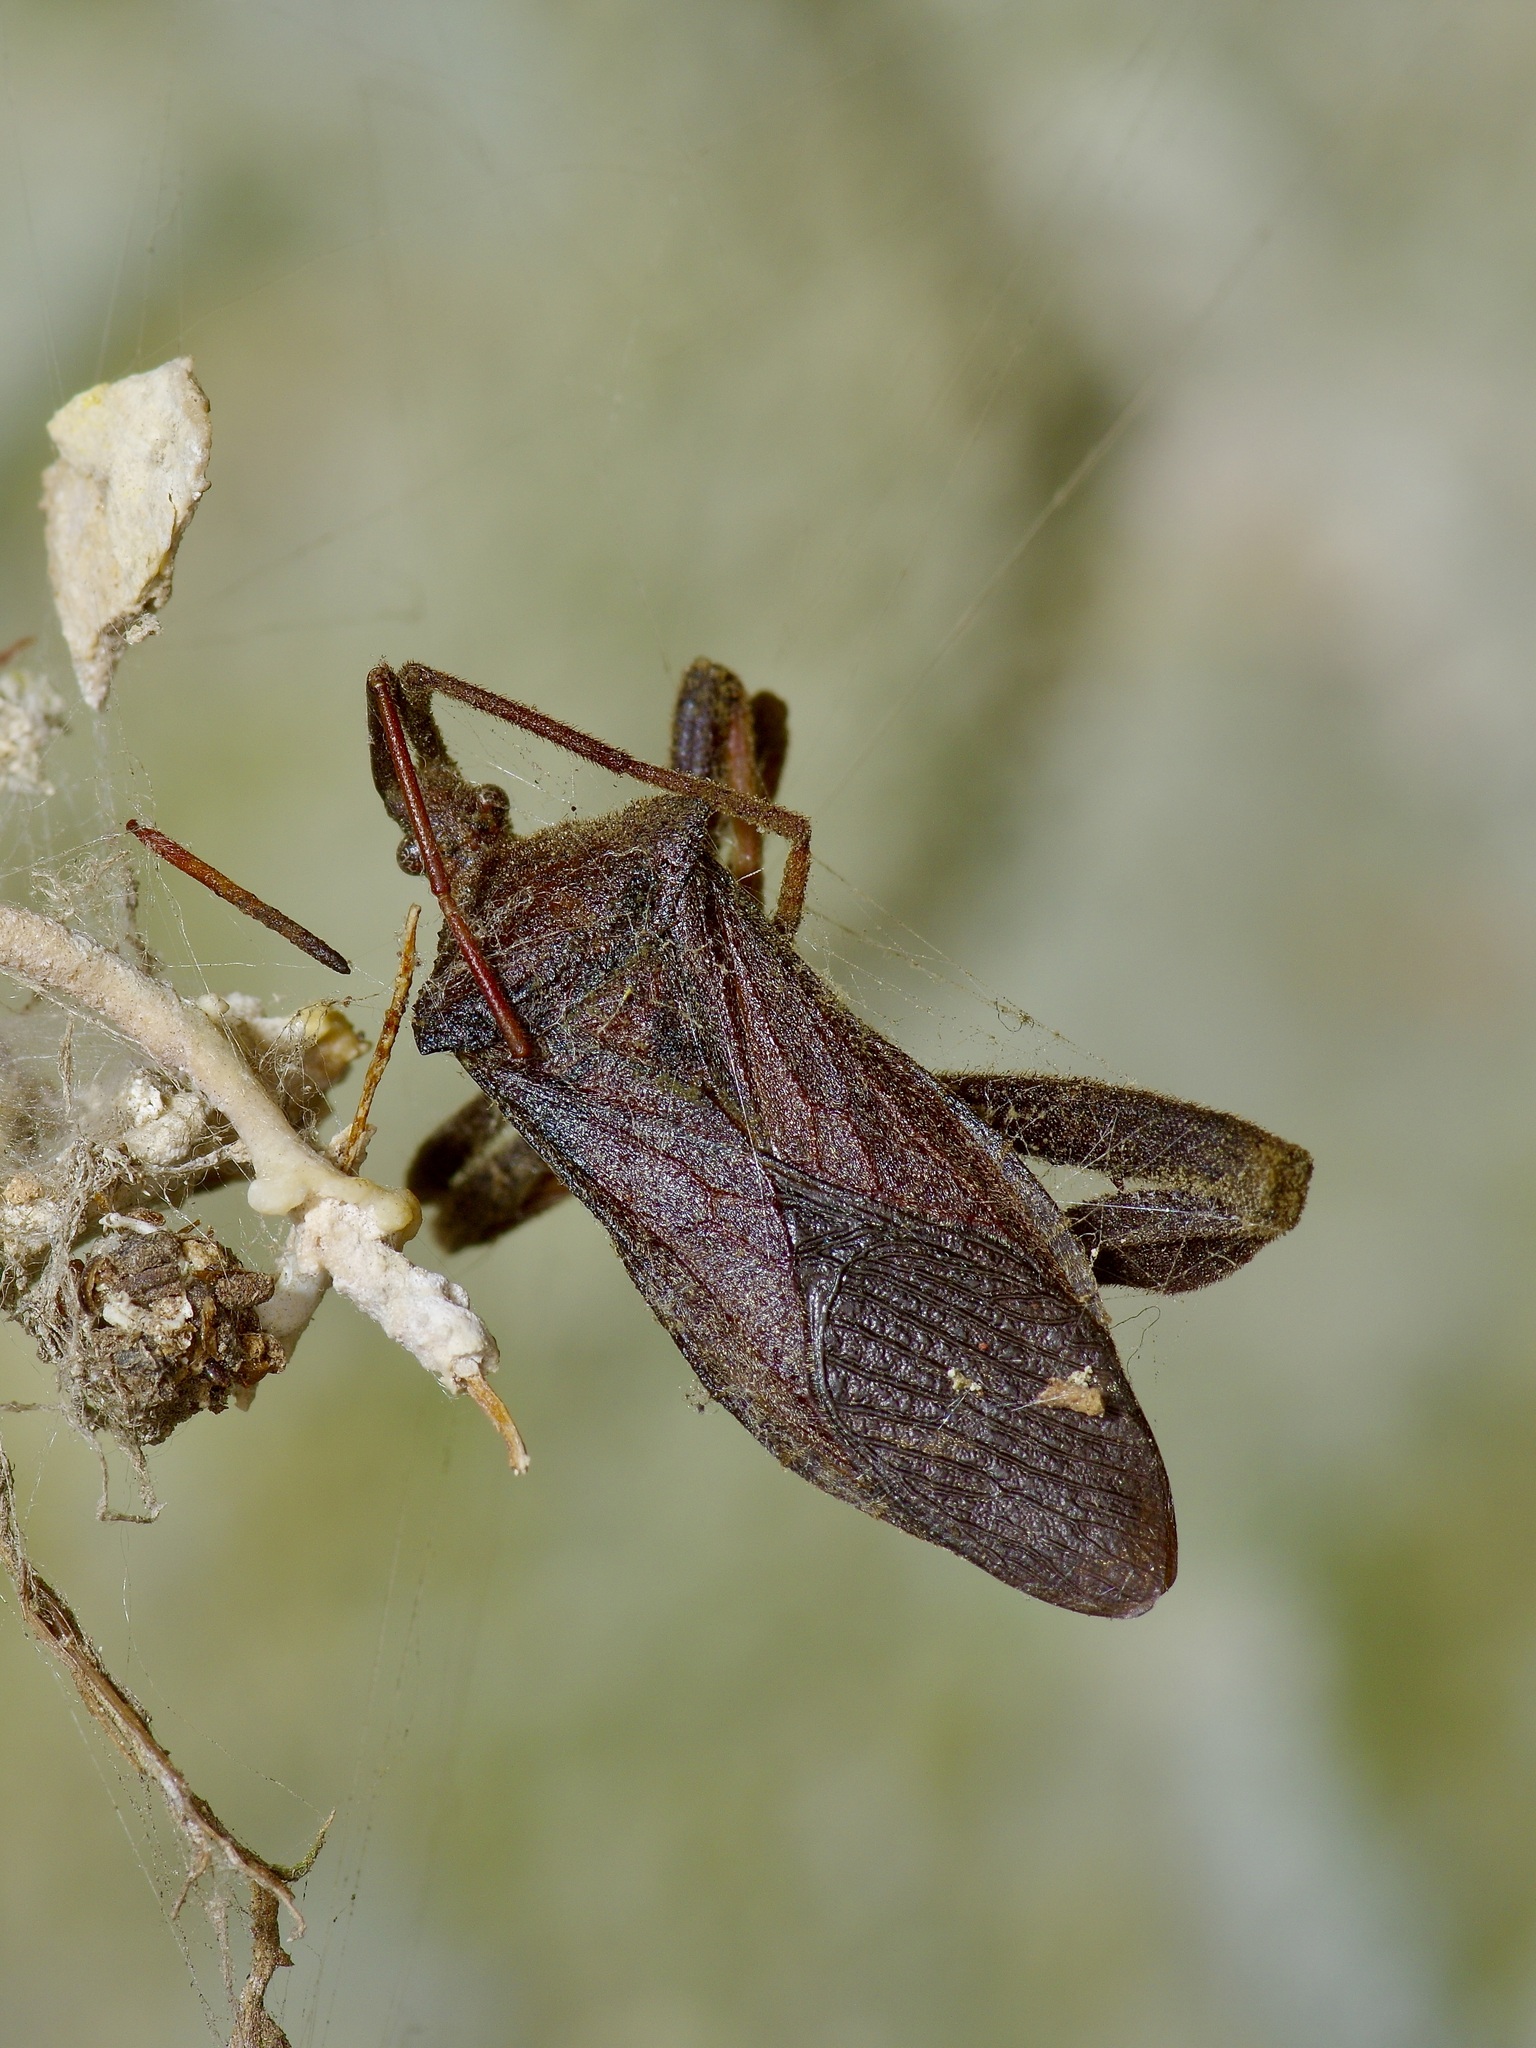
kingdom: Animalia
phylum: Arthropoda
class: Insecta
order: Hemiptera
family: Coreidae
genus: Leptoglossus
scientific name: Leptoglossus fulvicornis
